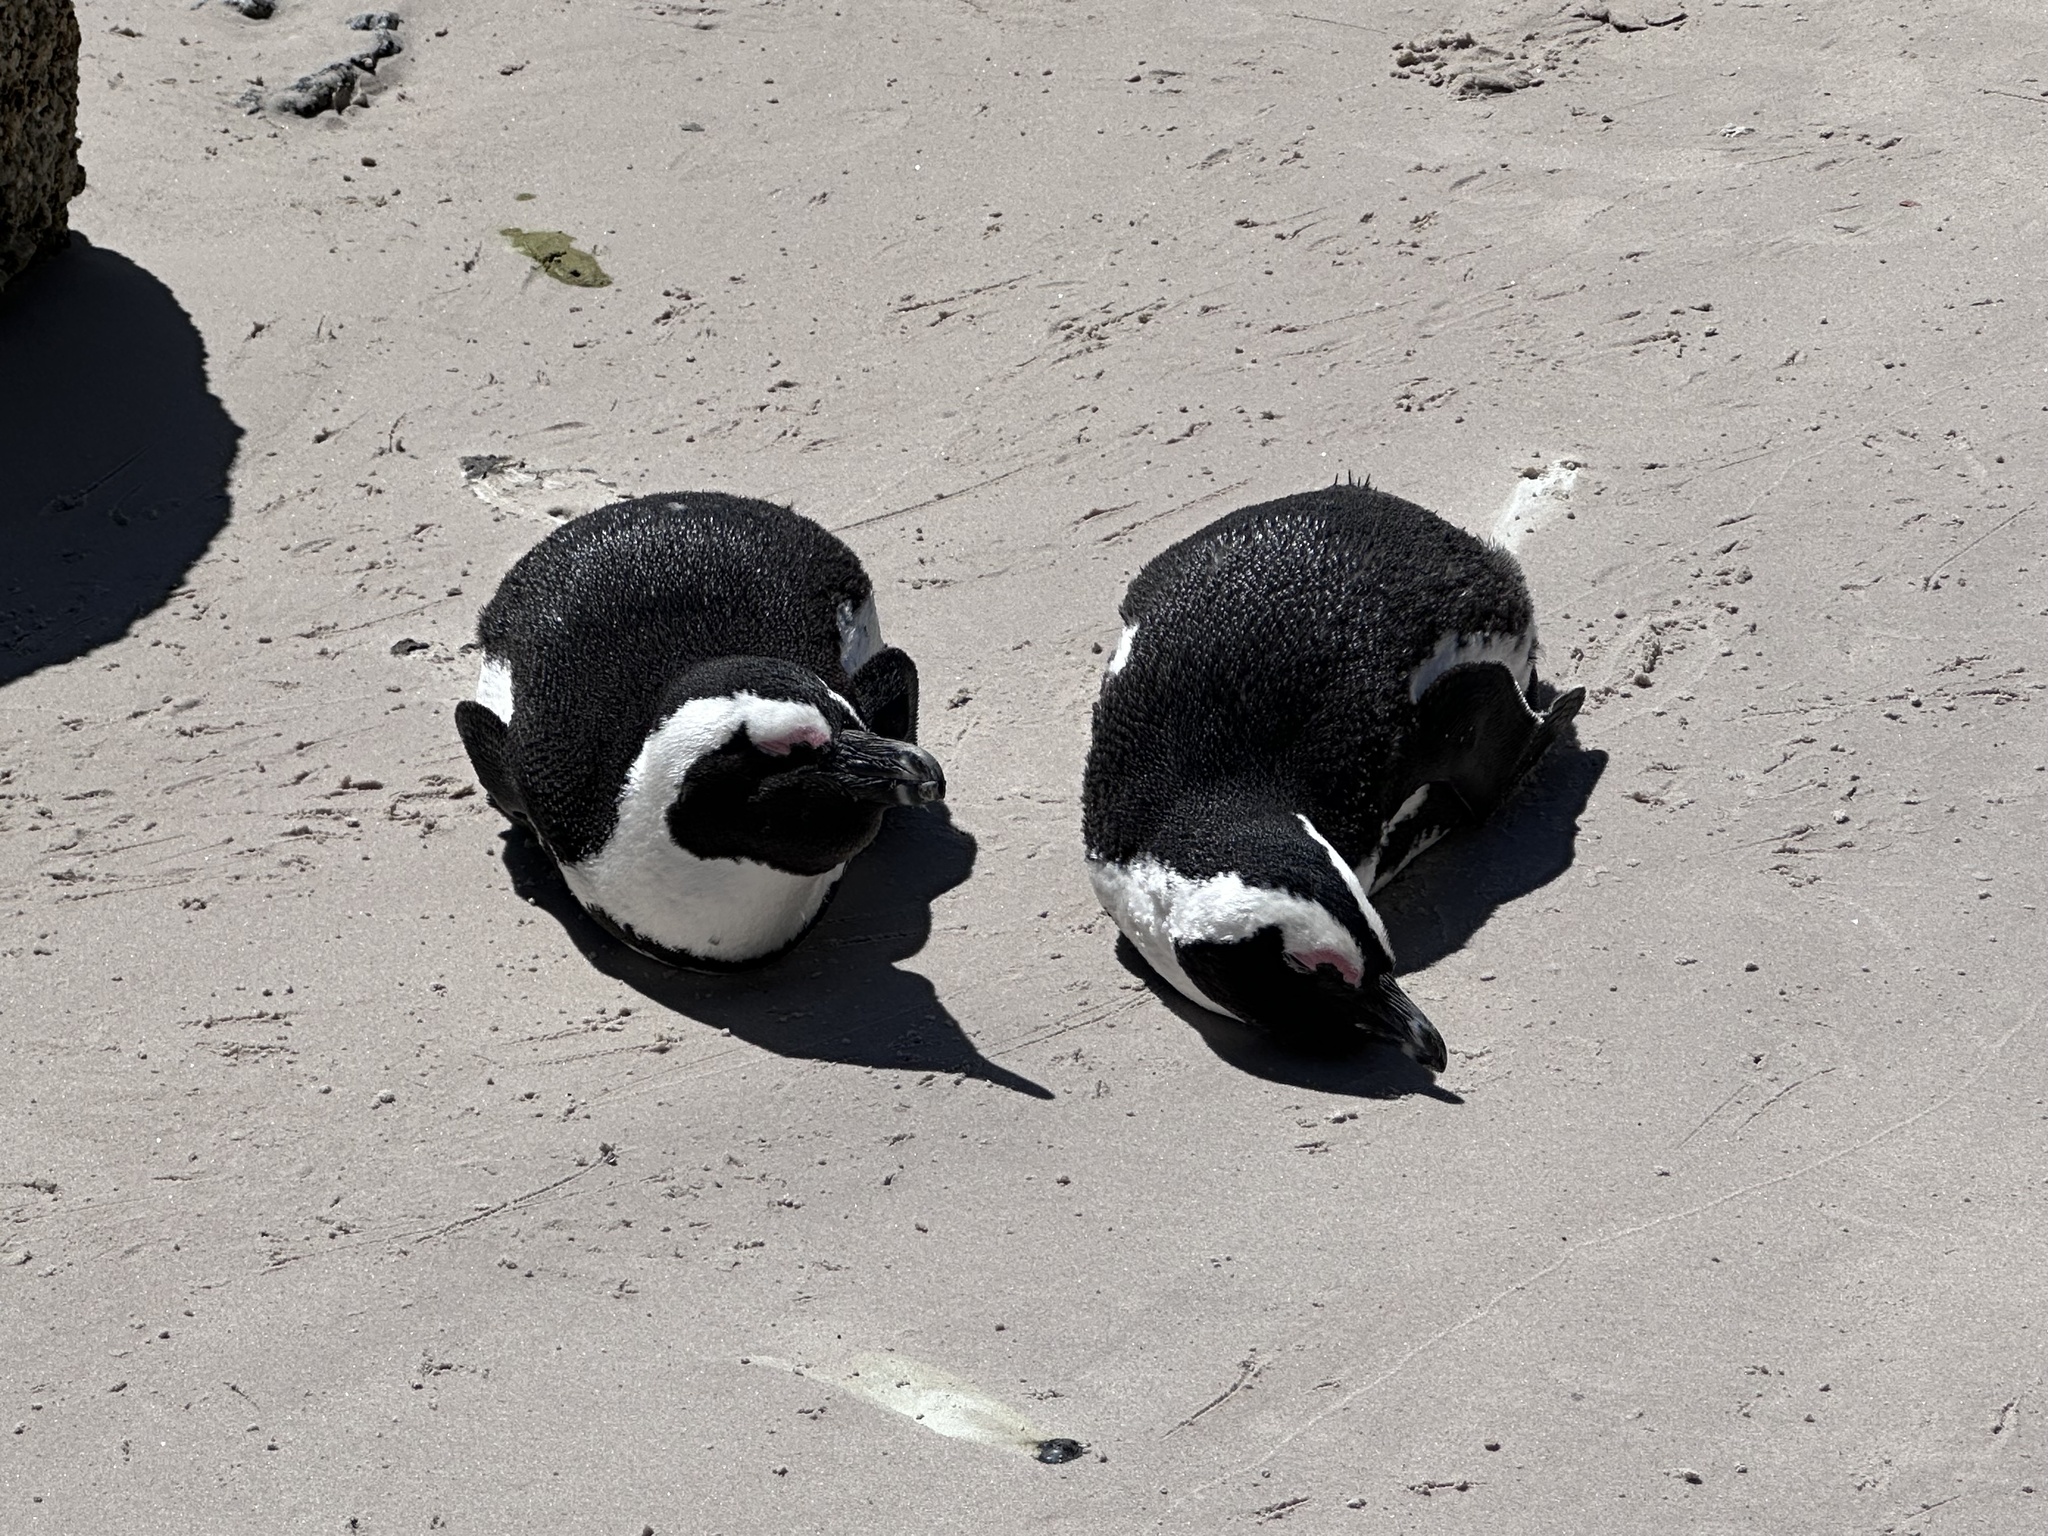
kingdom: Animalia
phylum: Chordata
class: Aves
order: Sphenisciformes
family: Spheniscidae
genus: Spheniscus
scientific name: Spheniscus demersus
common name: African penguin
